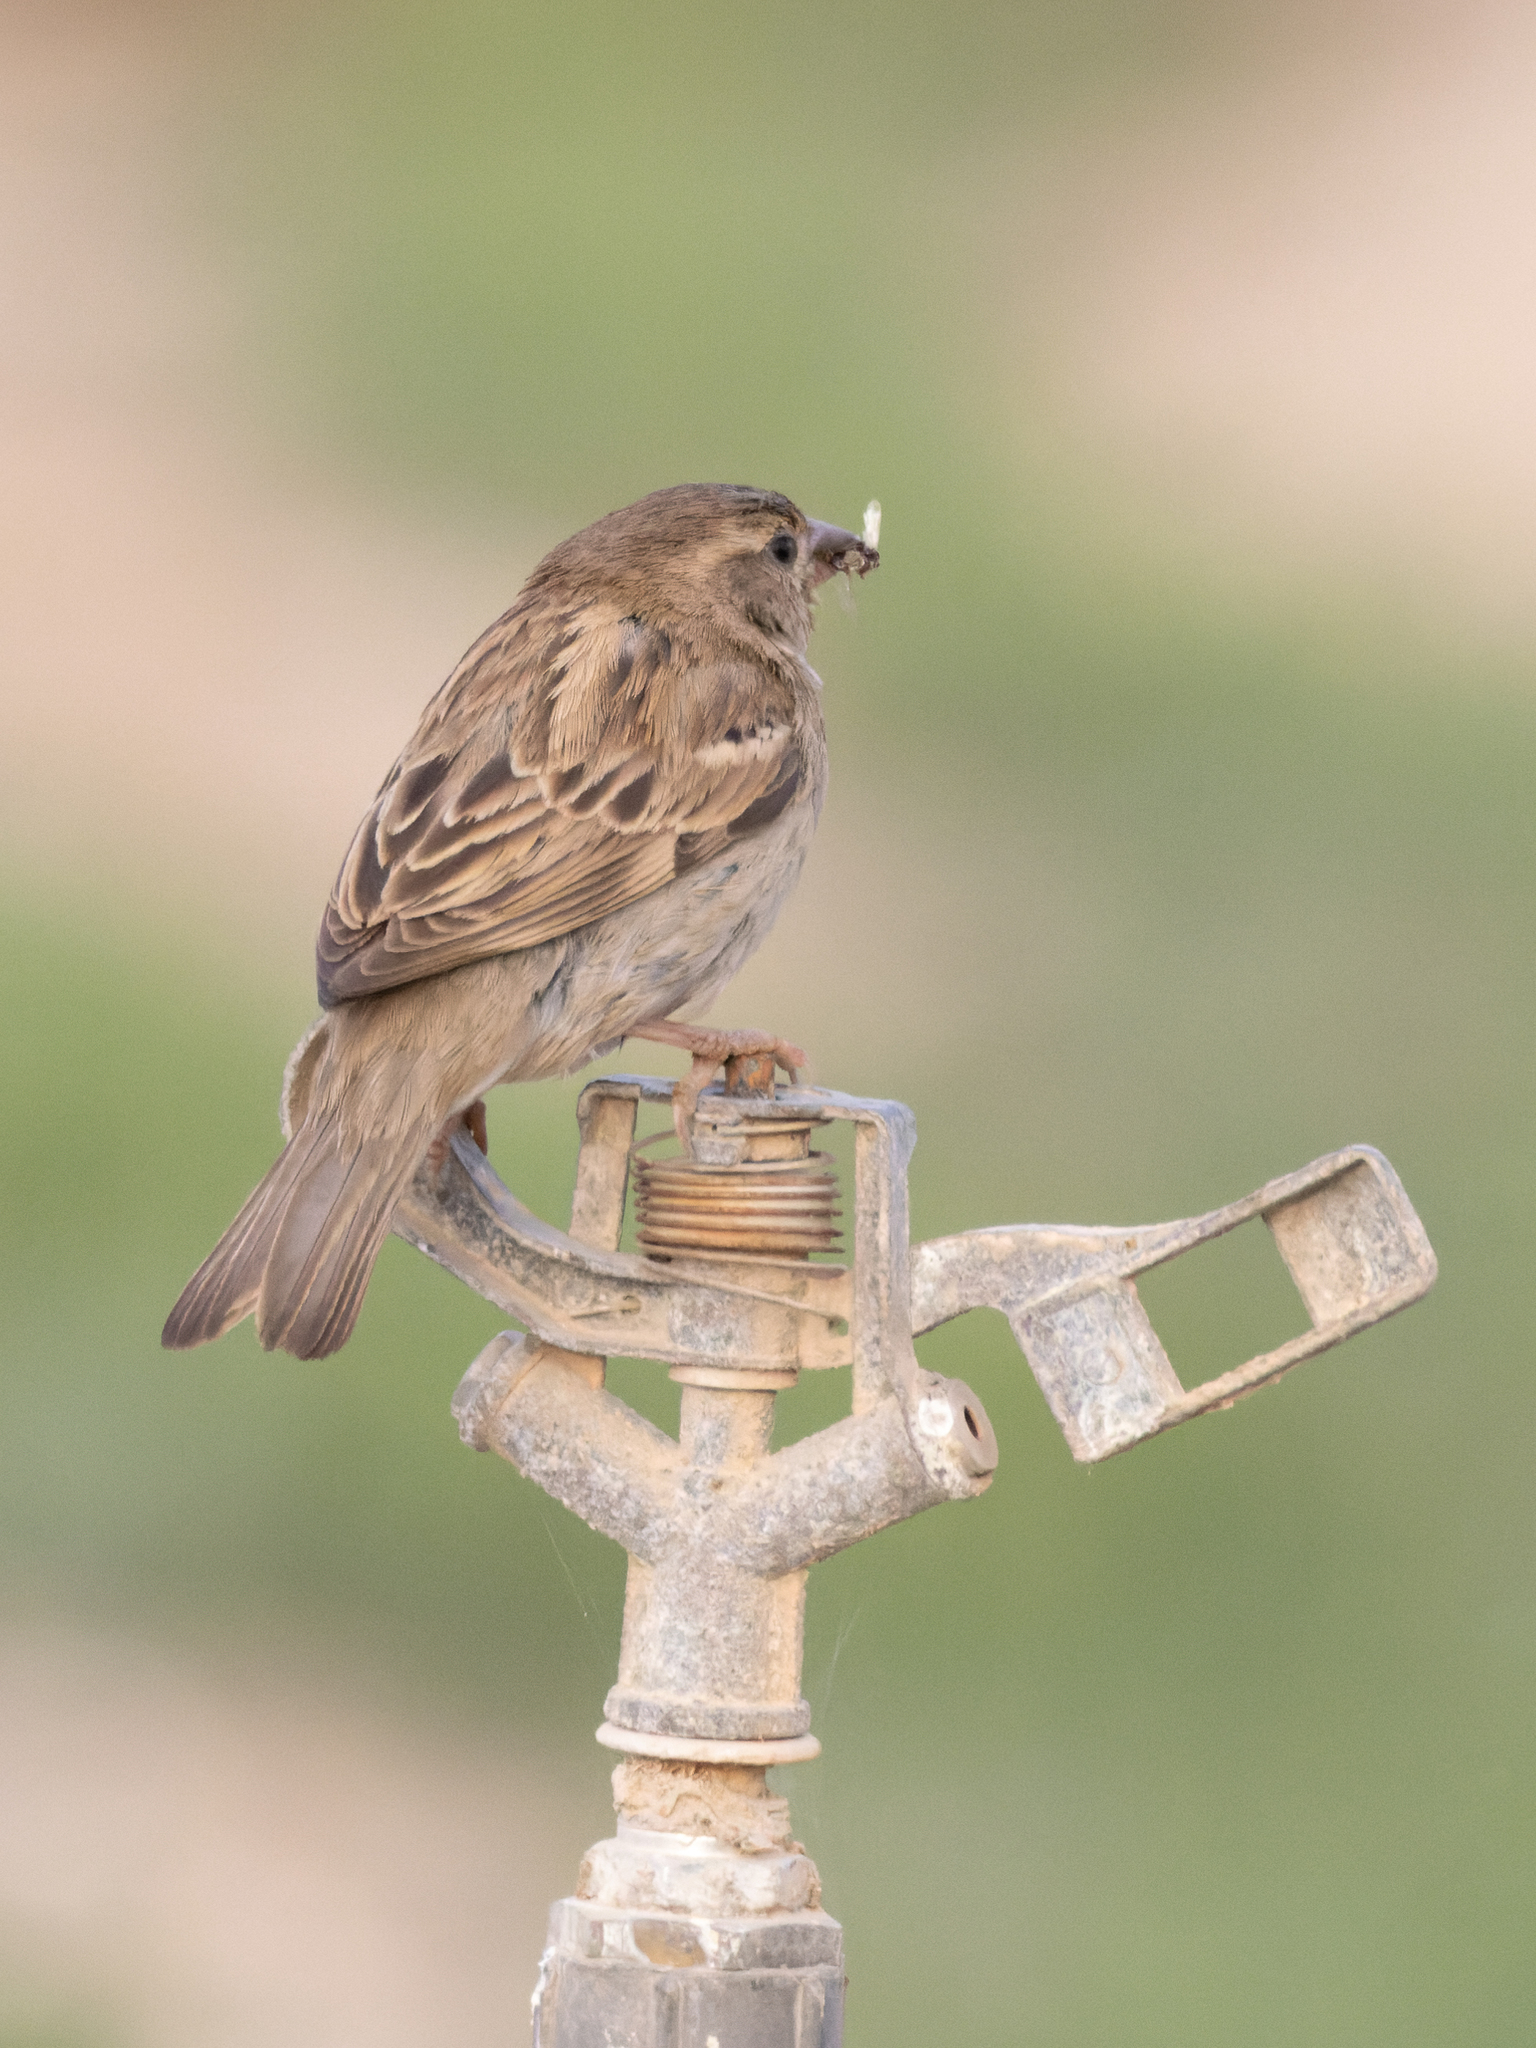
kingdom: Animalia
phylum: Chordata
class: Aves
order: Passeriformes
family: Passeridae
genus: Passer
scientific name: Passer domesticus
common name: House sparrow
